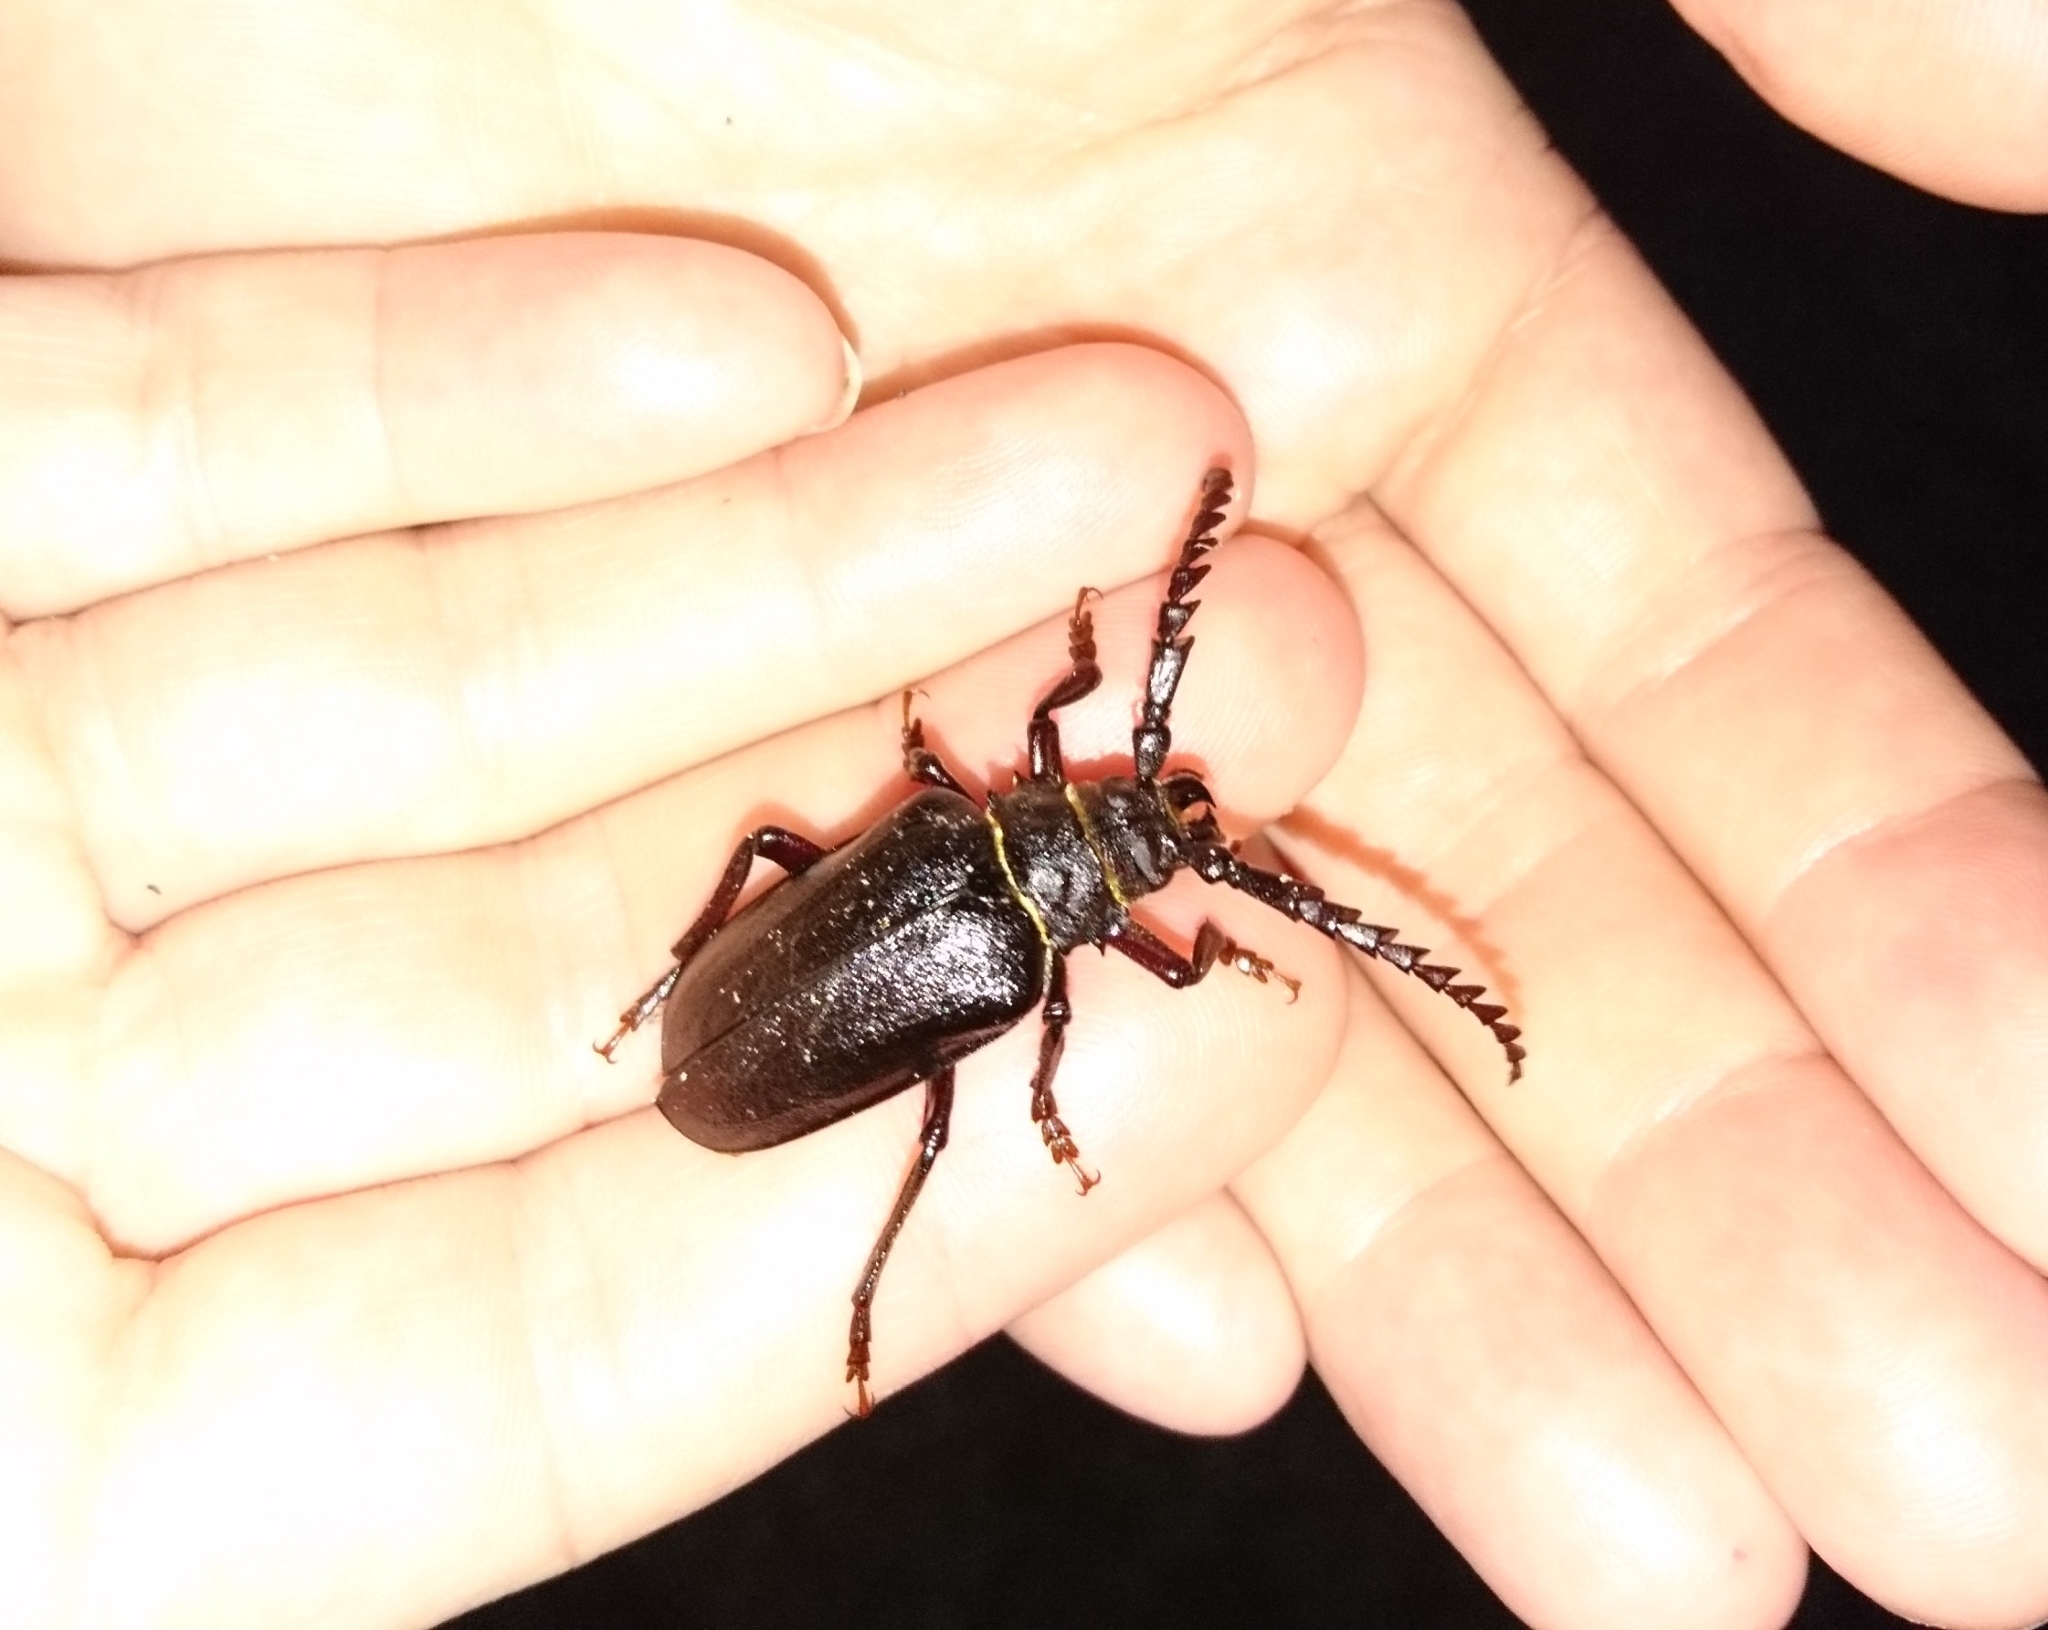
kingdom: Animalia
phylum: Arthropoda
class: Insecta
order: Coleoptera
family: Cerambycidae
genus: Prionus
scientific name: Prionus coriarius
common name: Tanner beetle
